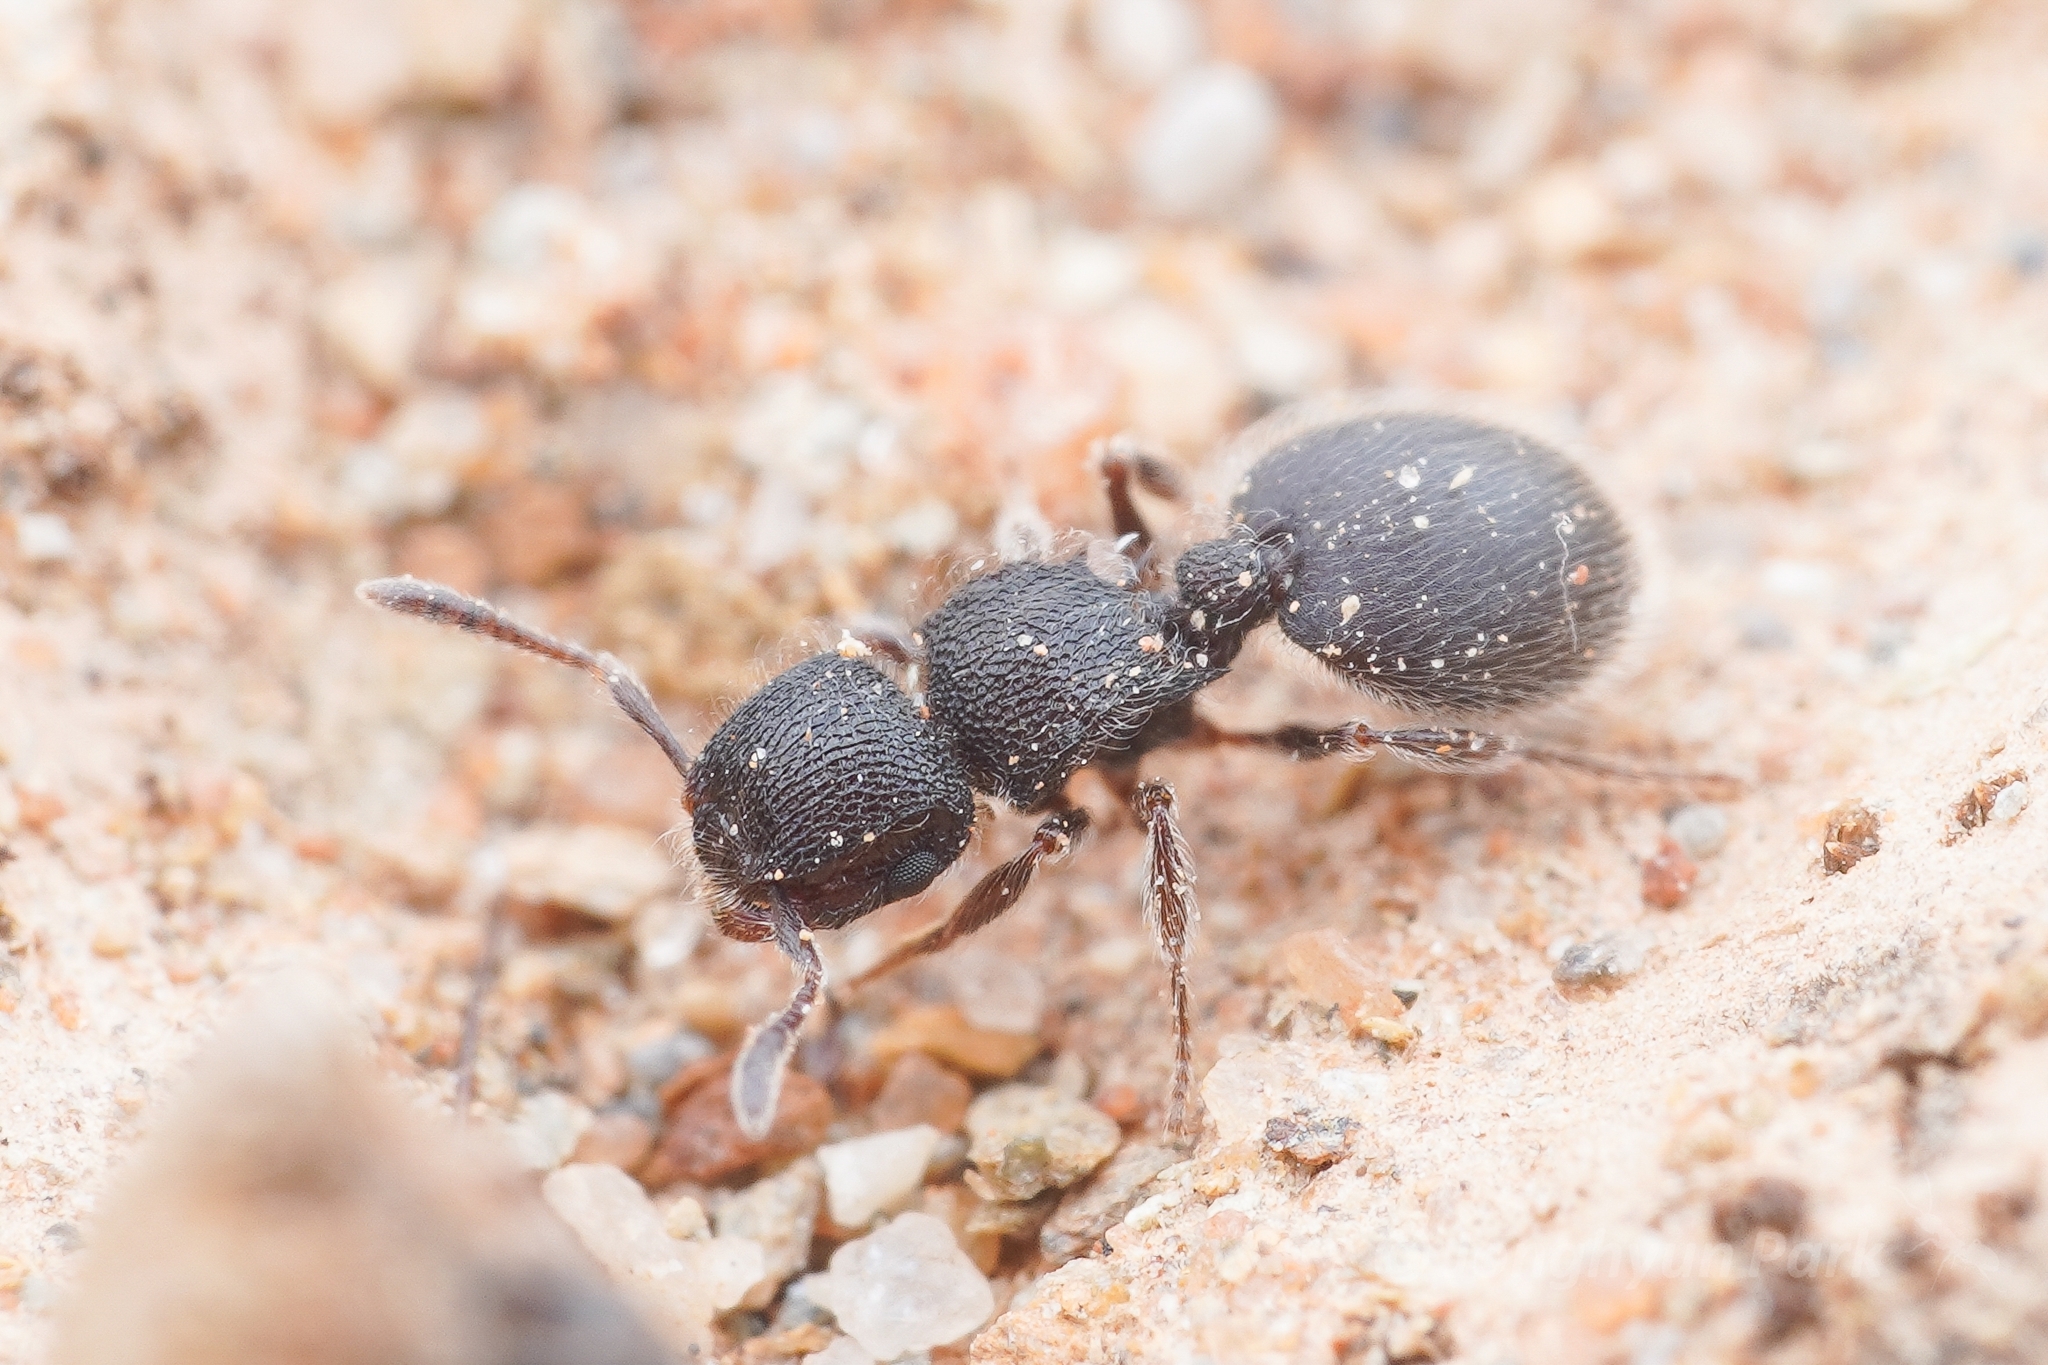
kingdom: Animalia
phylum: Arthropoda
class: Insecta
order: Hymenoptera
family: Formicidae
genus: Meranoplus
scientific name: Meranoplus peringueyi
